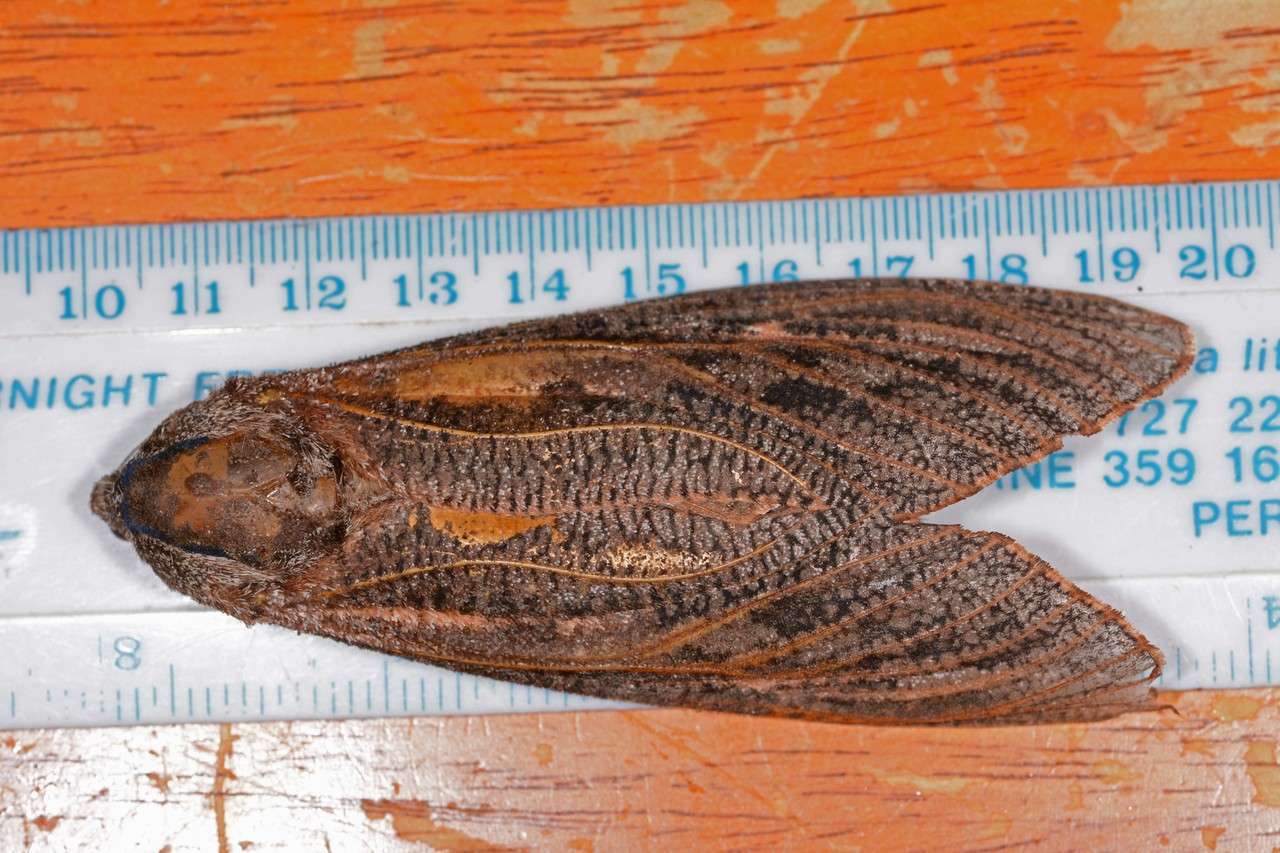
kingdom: Animalia
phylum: Arthropoda
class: Insecta
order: Lepidoptera
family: Cossidae
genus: Endoxyla
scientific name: Endoxyla encalypti
